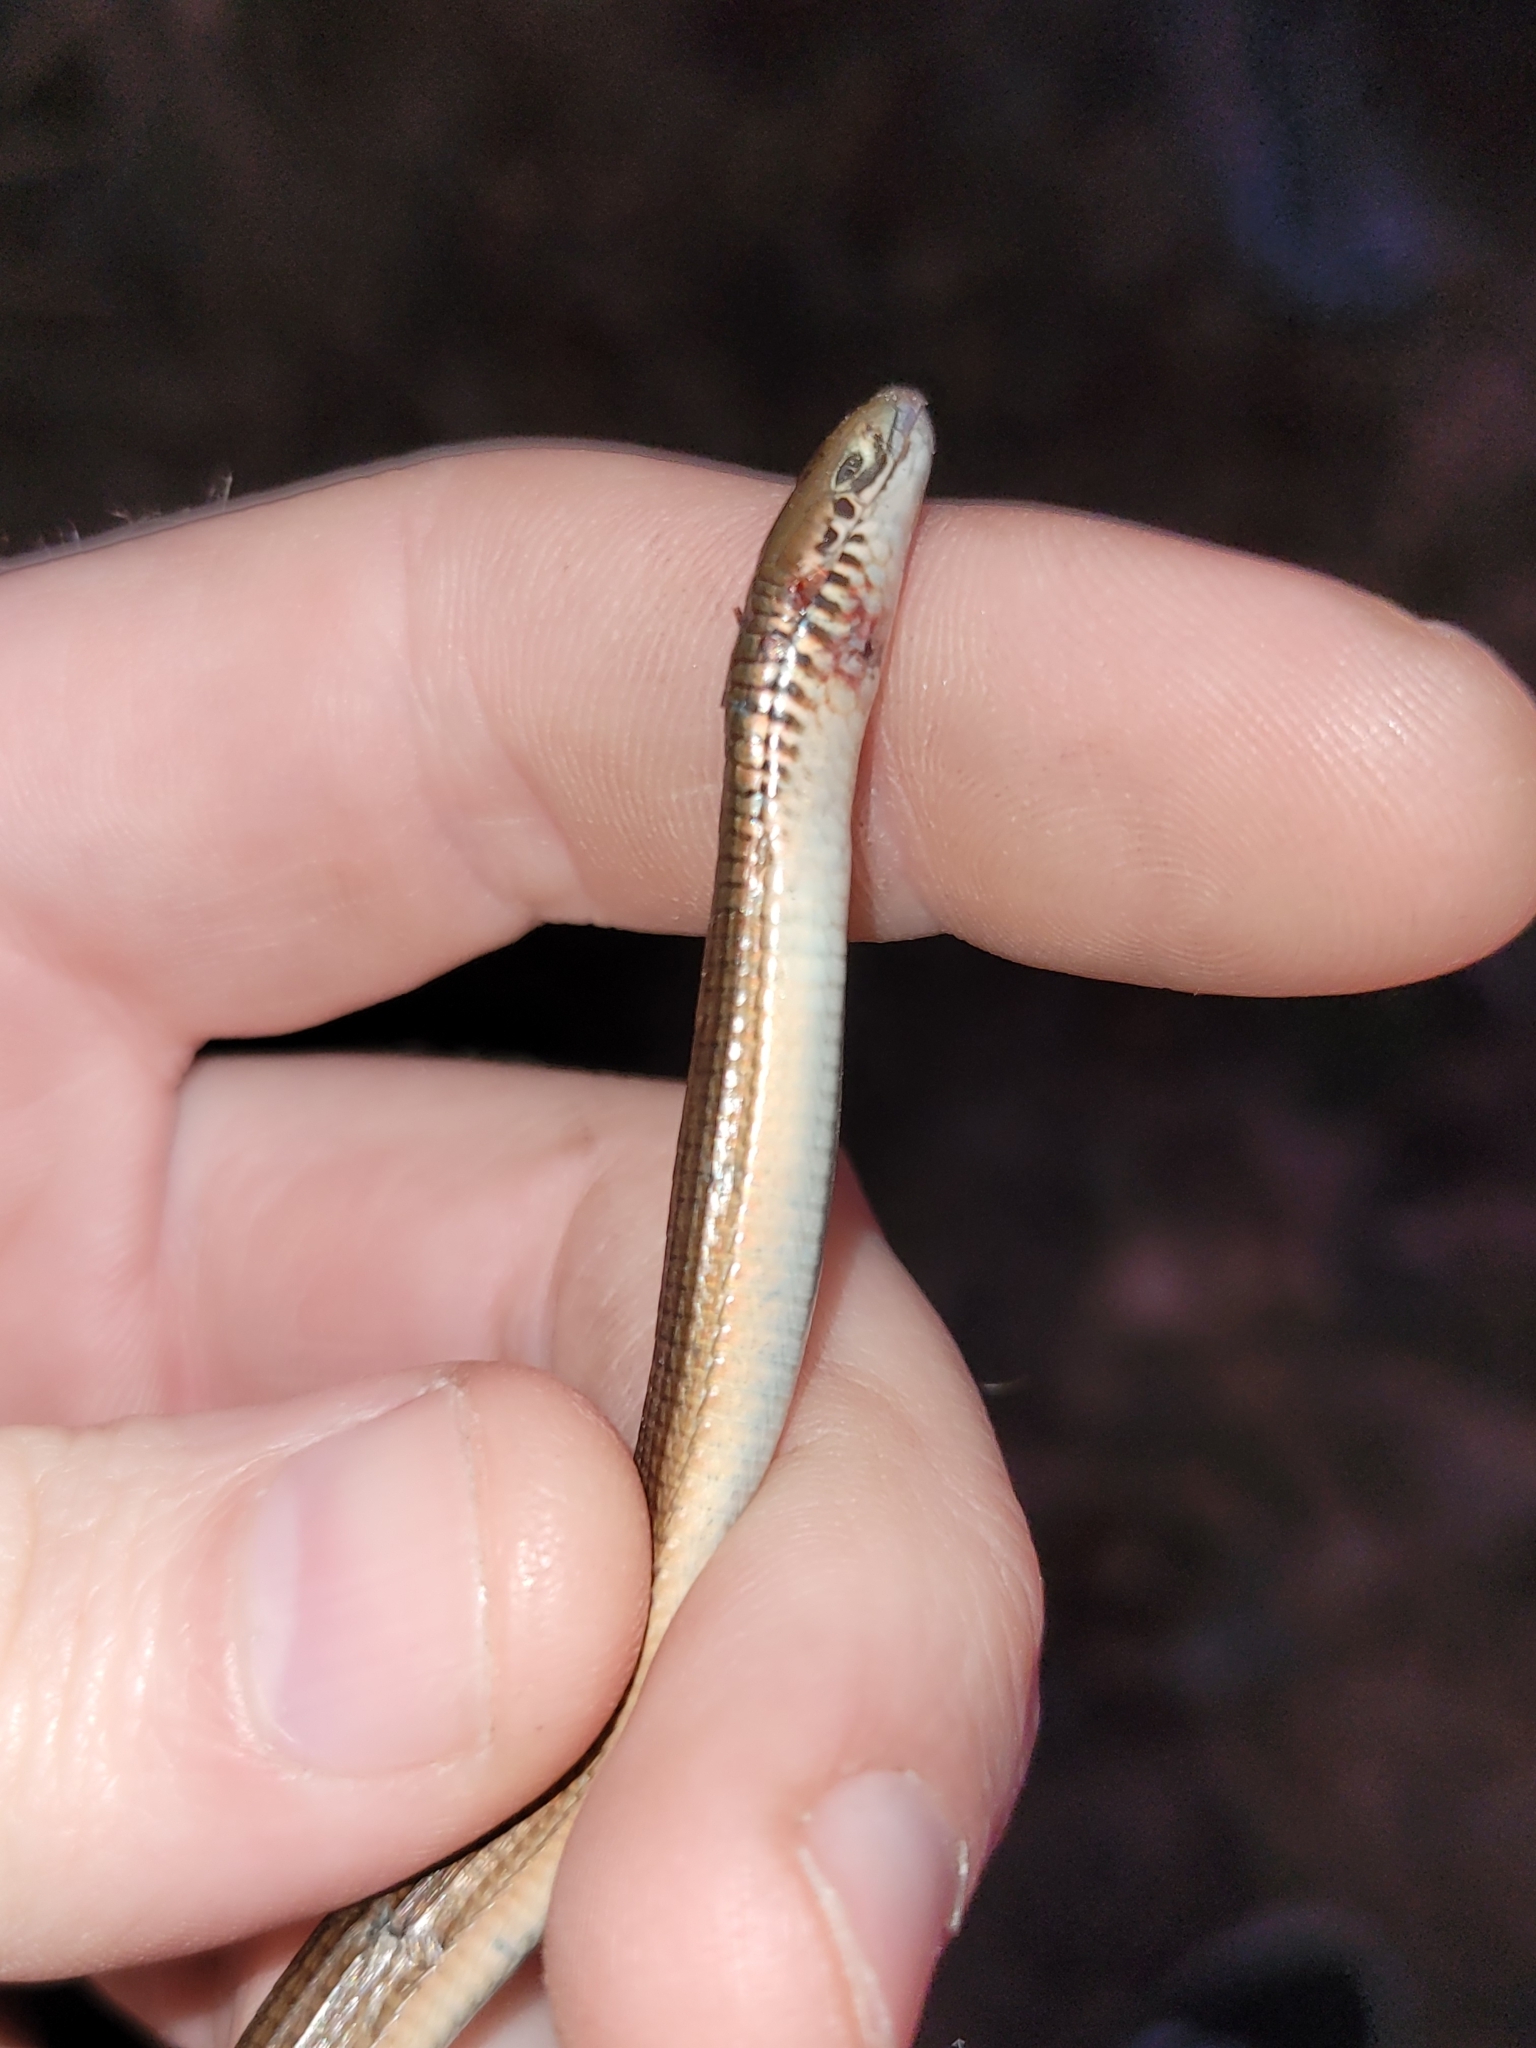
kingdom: Animalia
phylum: Chordata
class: Squamata
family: Gerrhosauridae
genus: Tetradactylus
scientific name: Tetradactylus africanus
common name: African whip lizard
